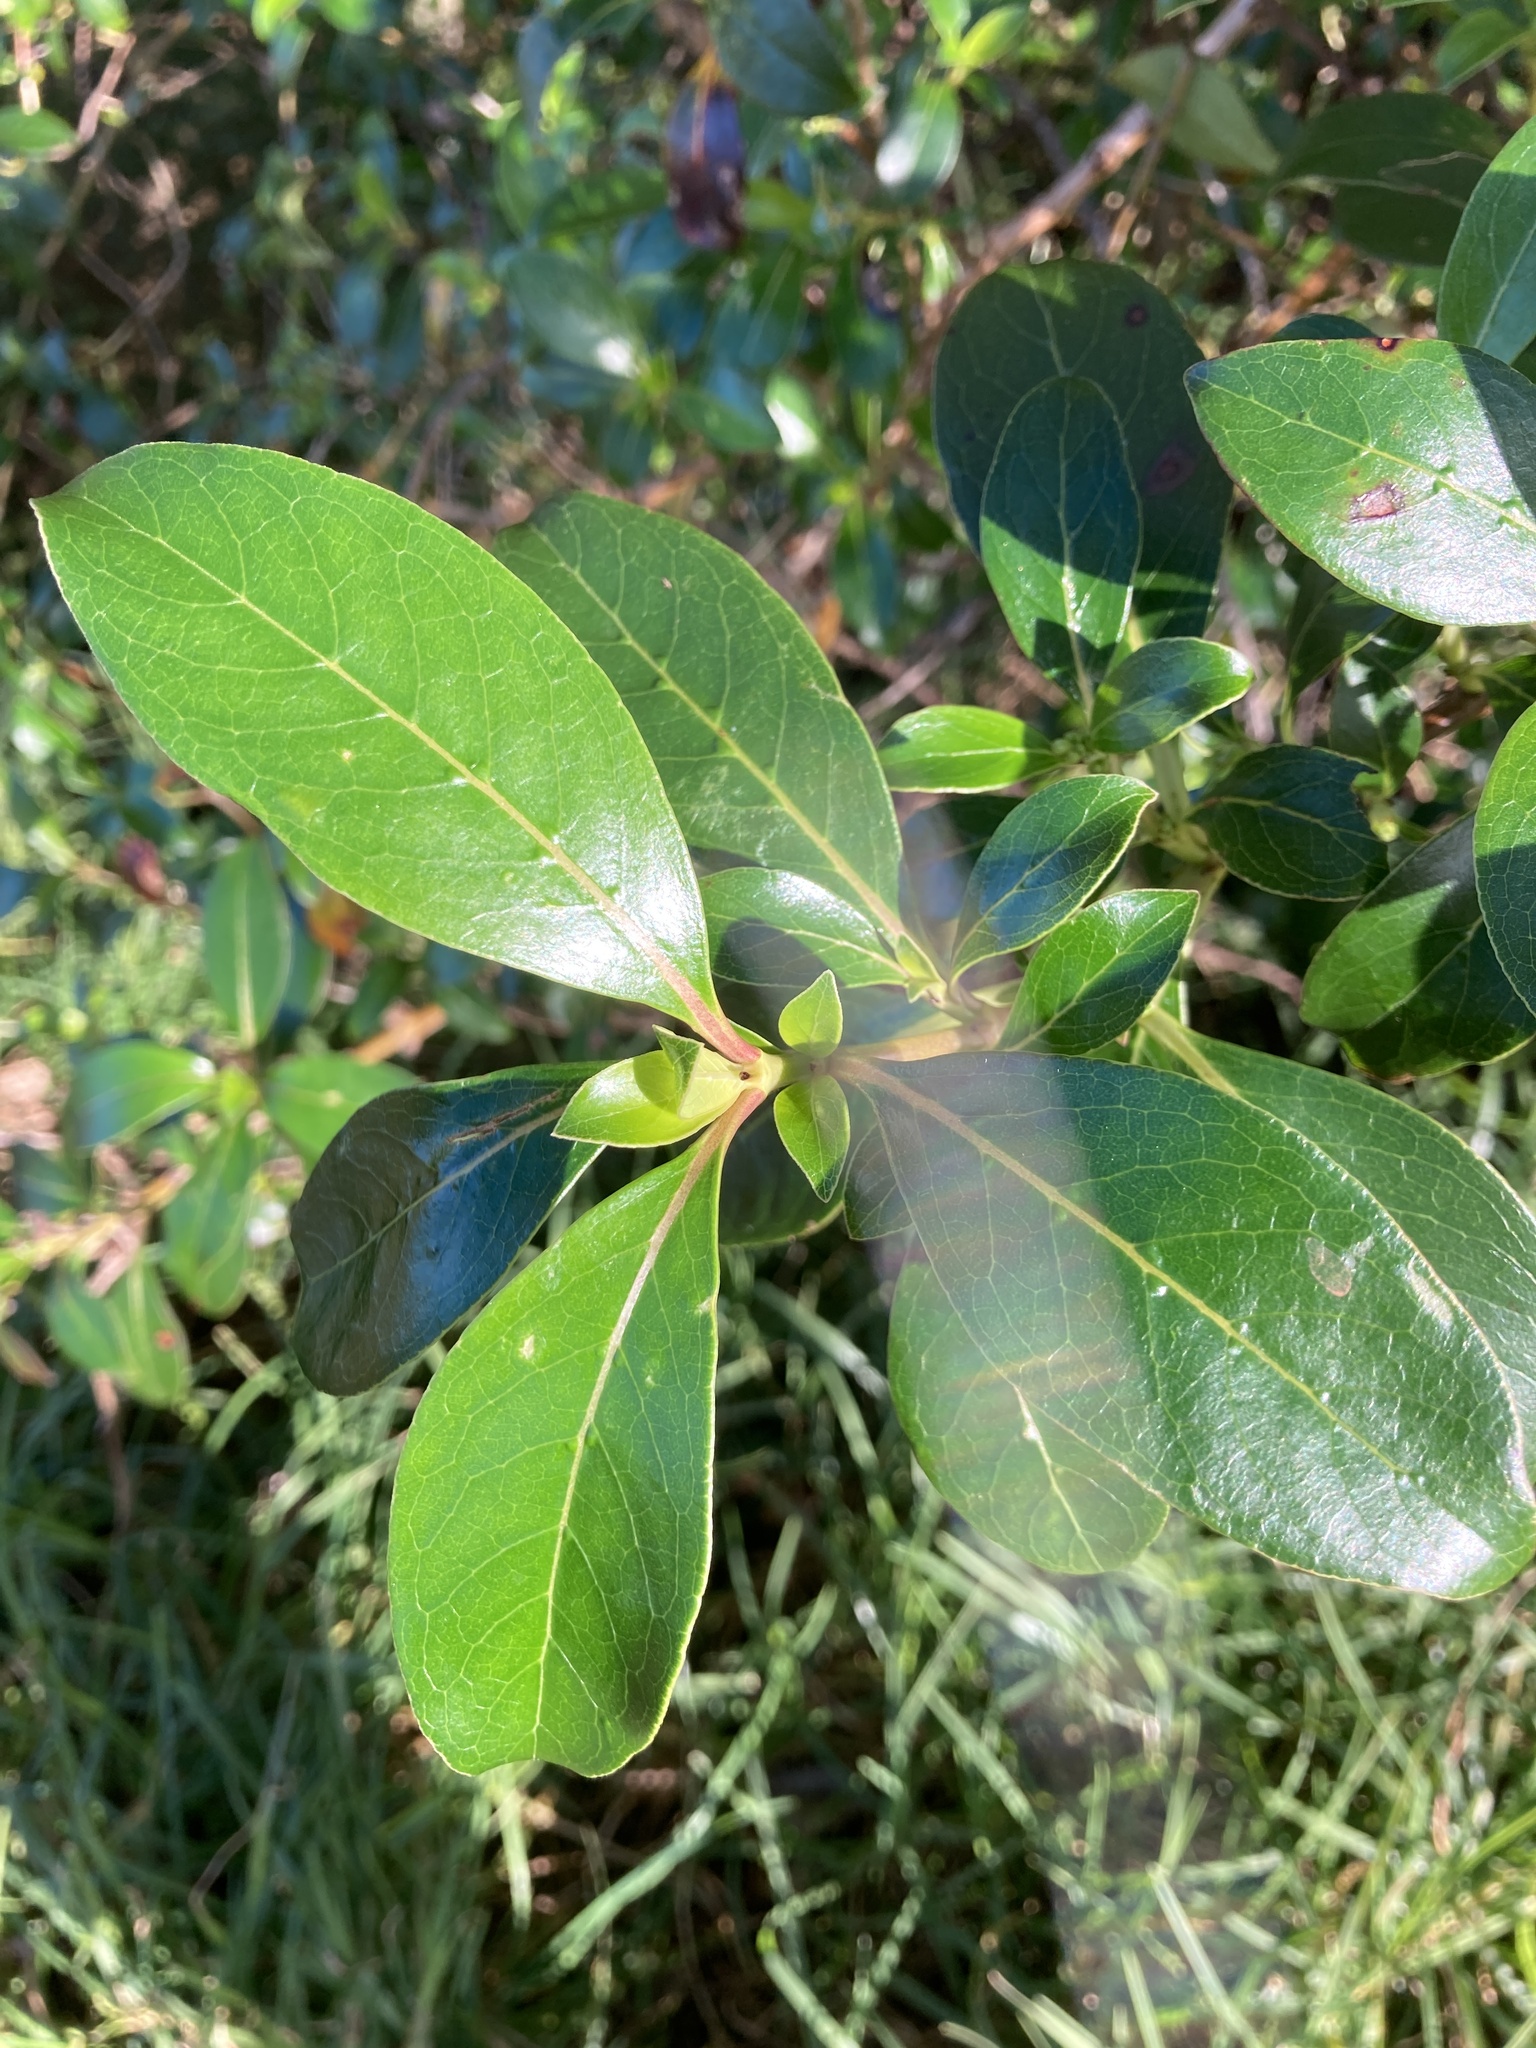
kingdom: Plantae
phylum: Tracheophyta
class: Magnoliopsida
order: Gentianales
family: Rubiaceae
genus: Coprosma
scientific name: Coprosma robusta
